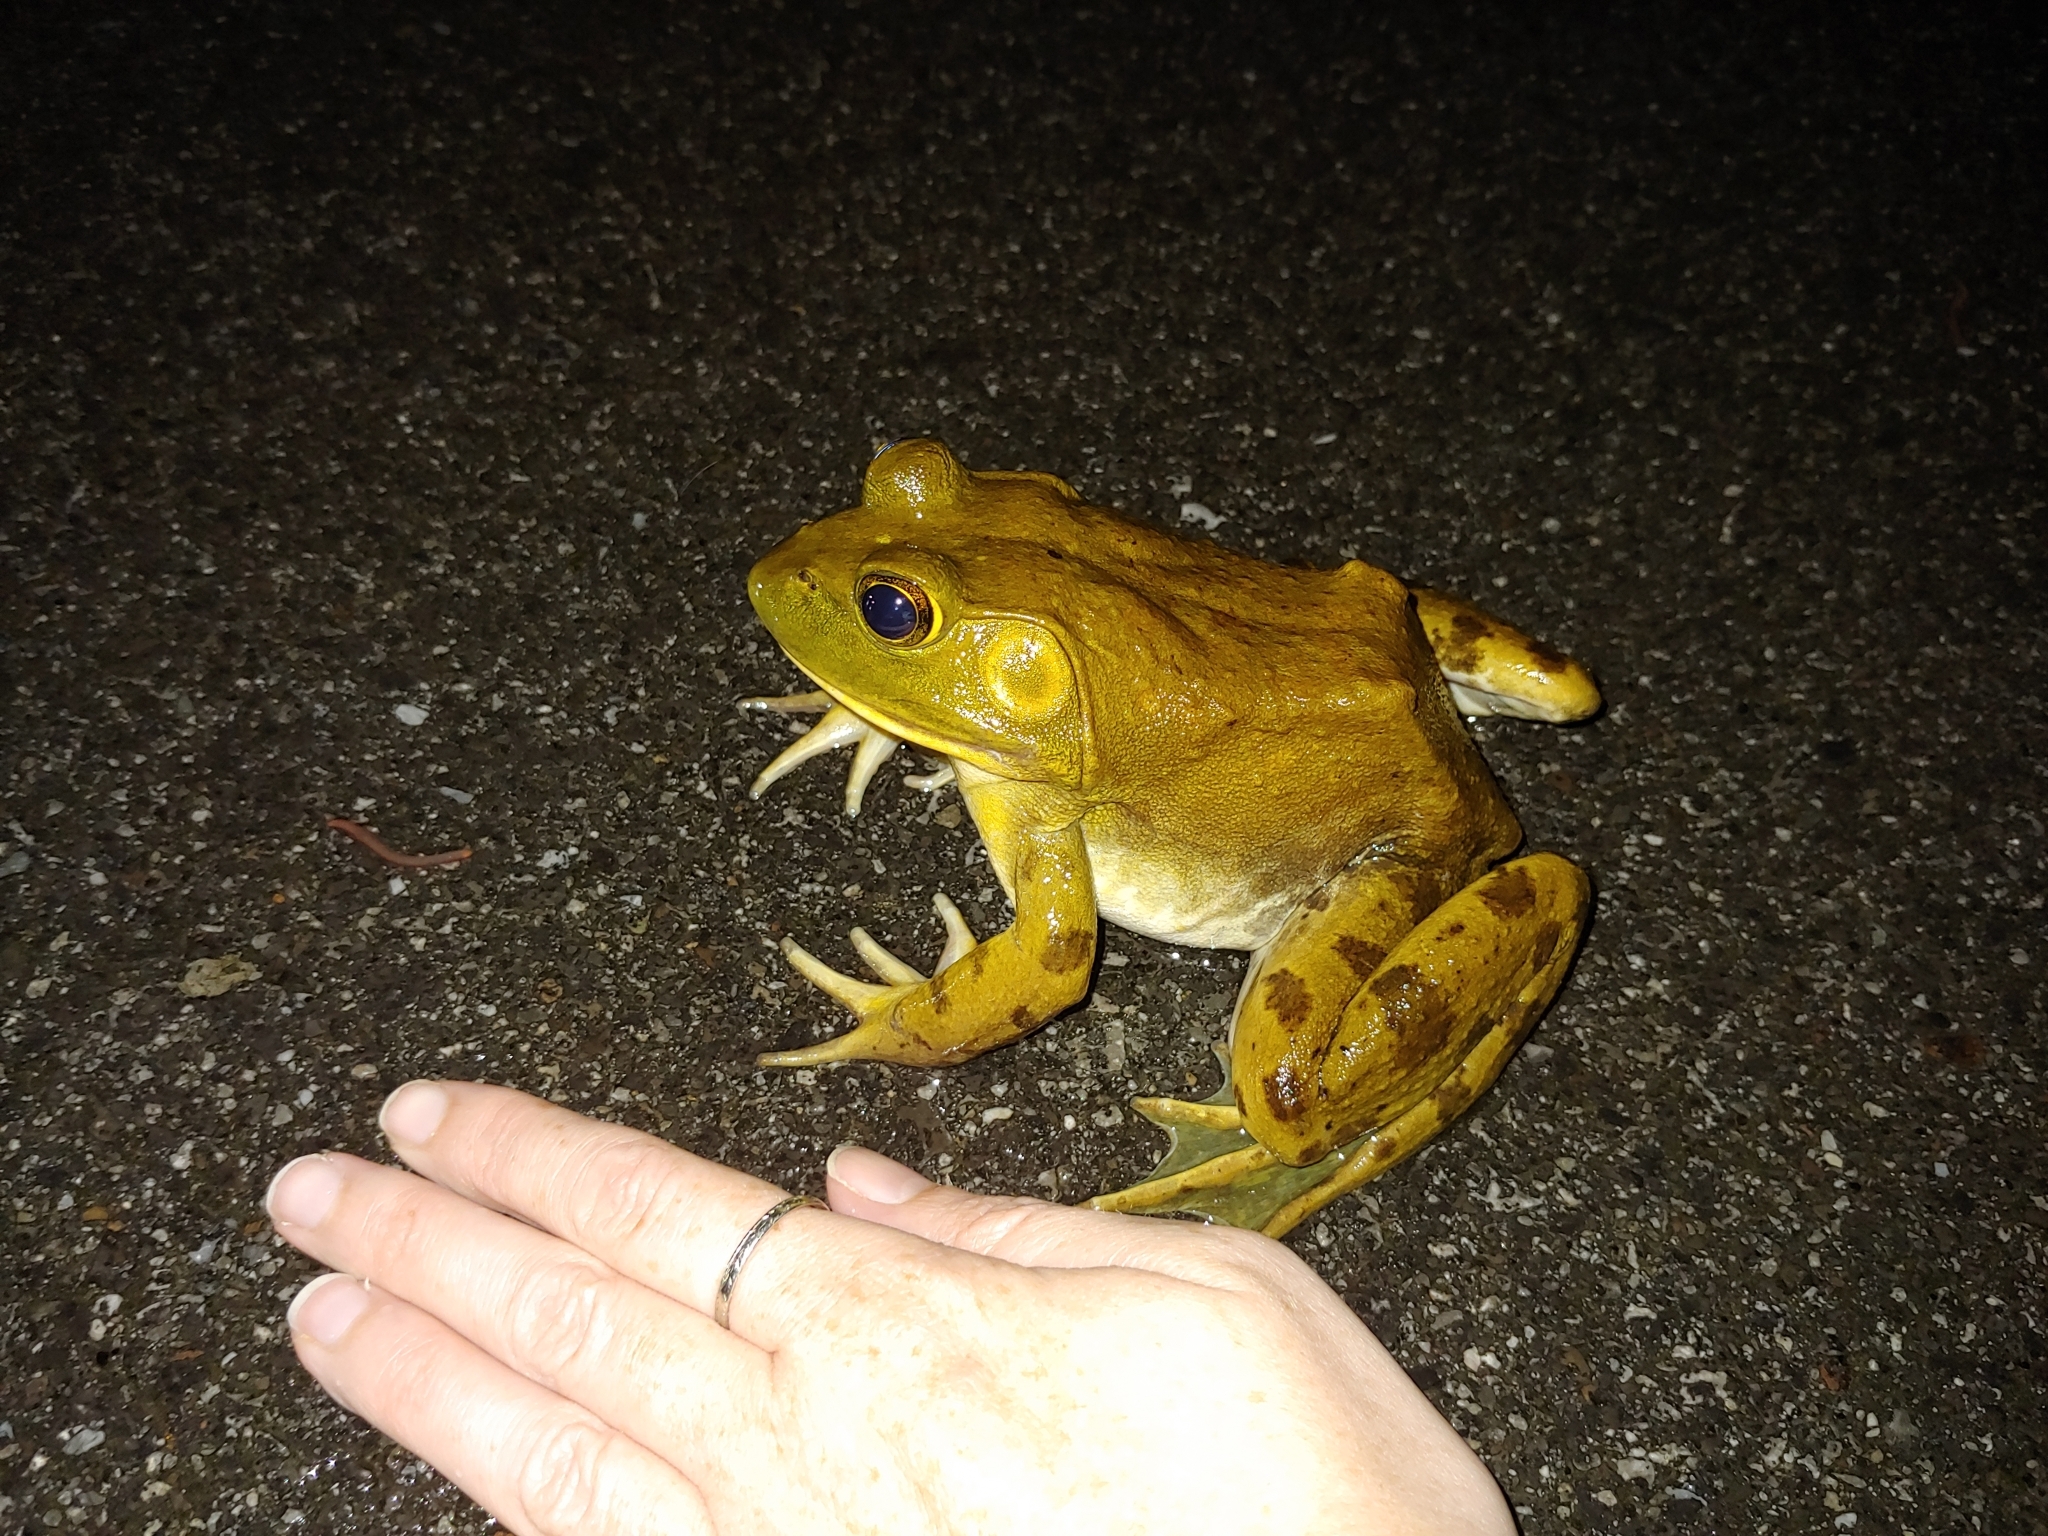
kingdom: Animalia
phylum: Chordata
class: Amphibia
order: Anura
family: Ranidae
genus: Lithobates
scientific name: Lithobates catesbeianus
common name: American bullfrog
